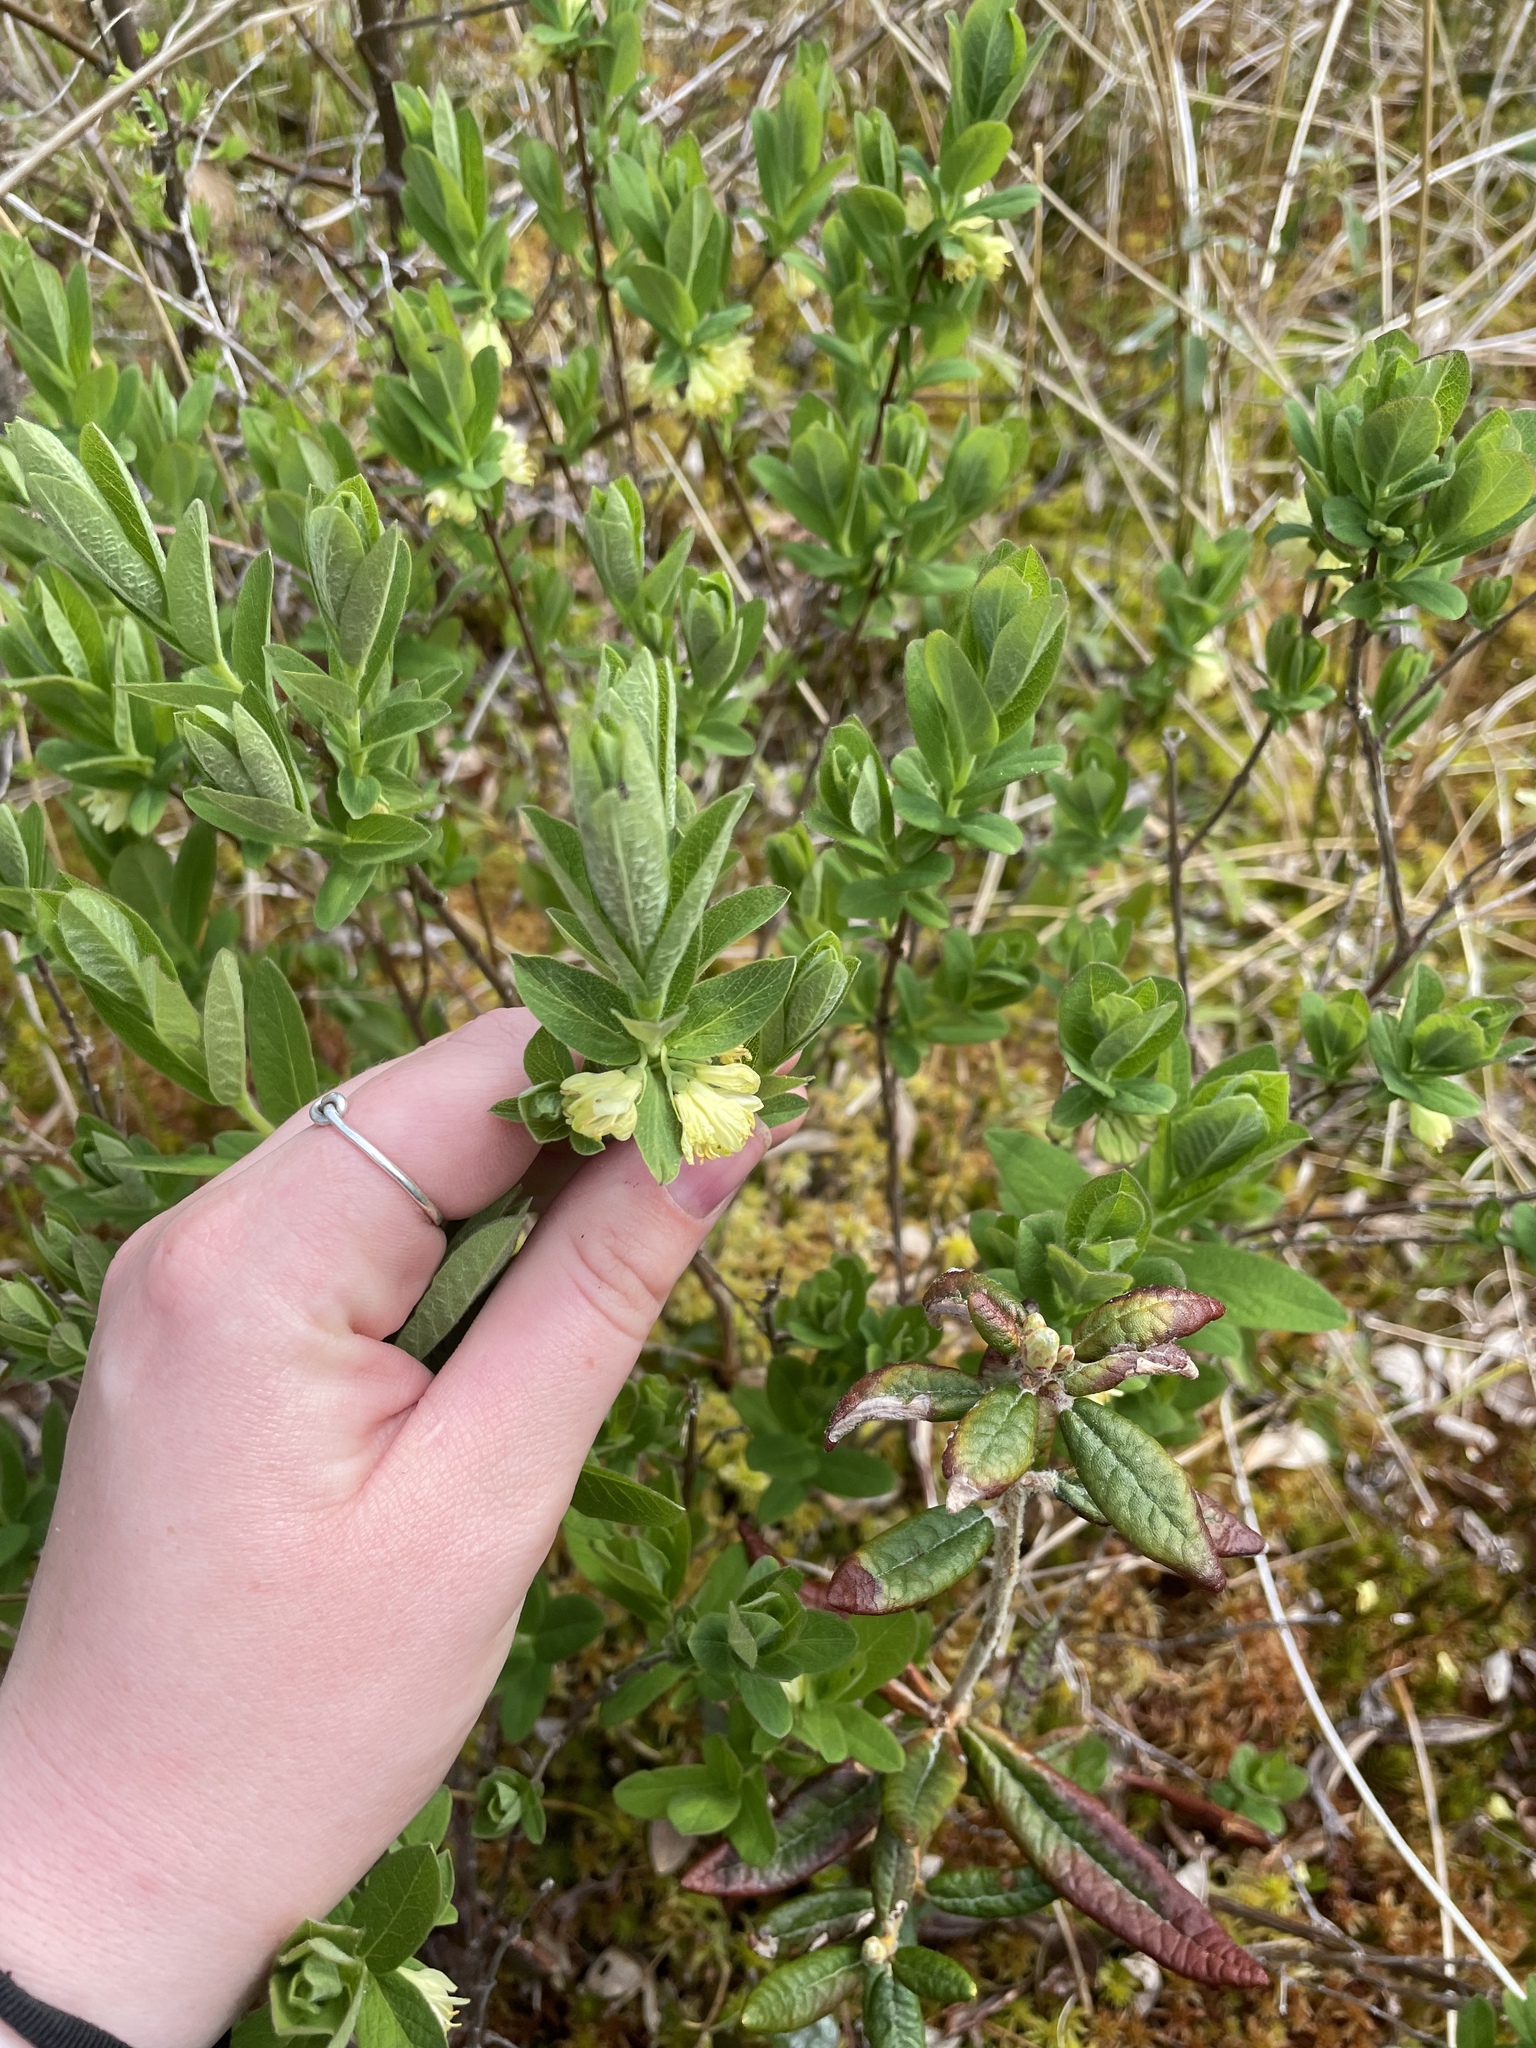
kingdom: Plantae
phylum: Tracheophyta
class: Magnoliopsida
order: Dipsacales
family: Caprifoliaceae
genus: Lonicera
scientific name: Lonicera villosa
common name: Mountain fly-honeysuckle
